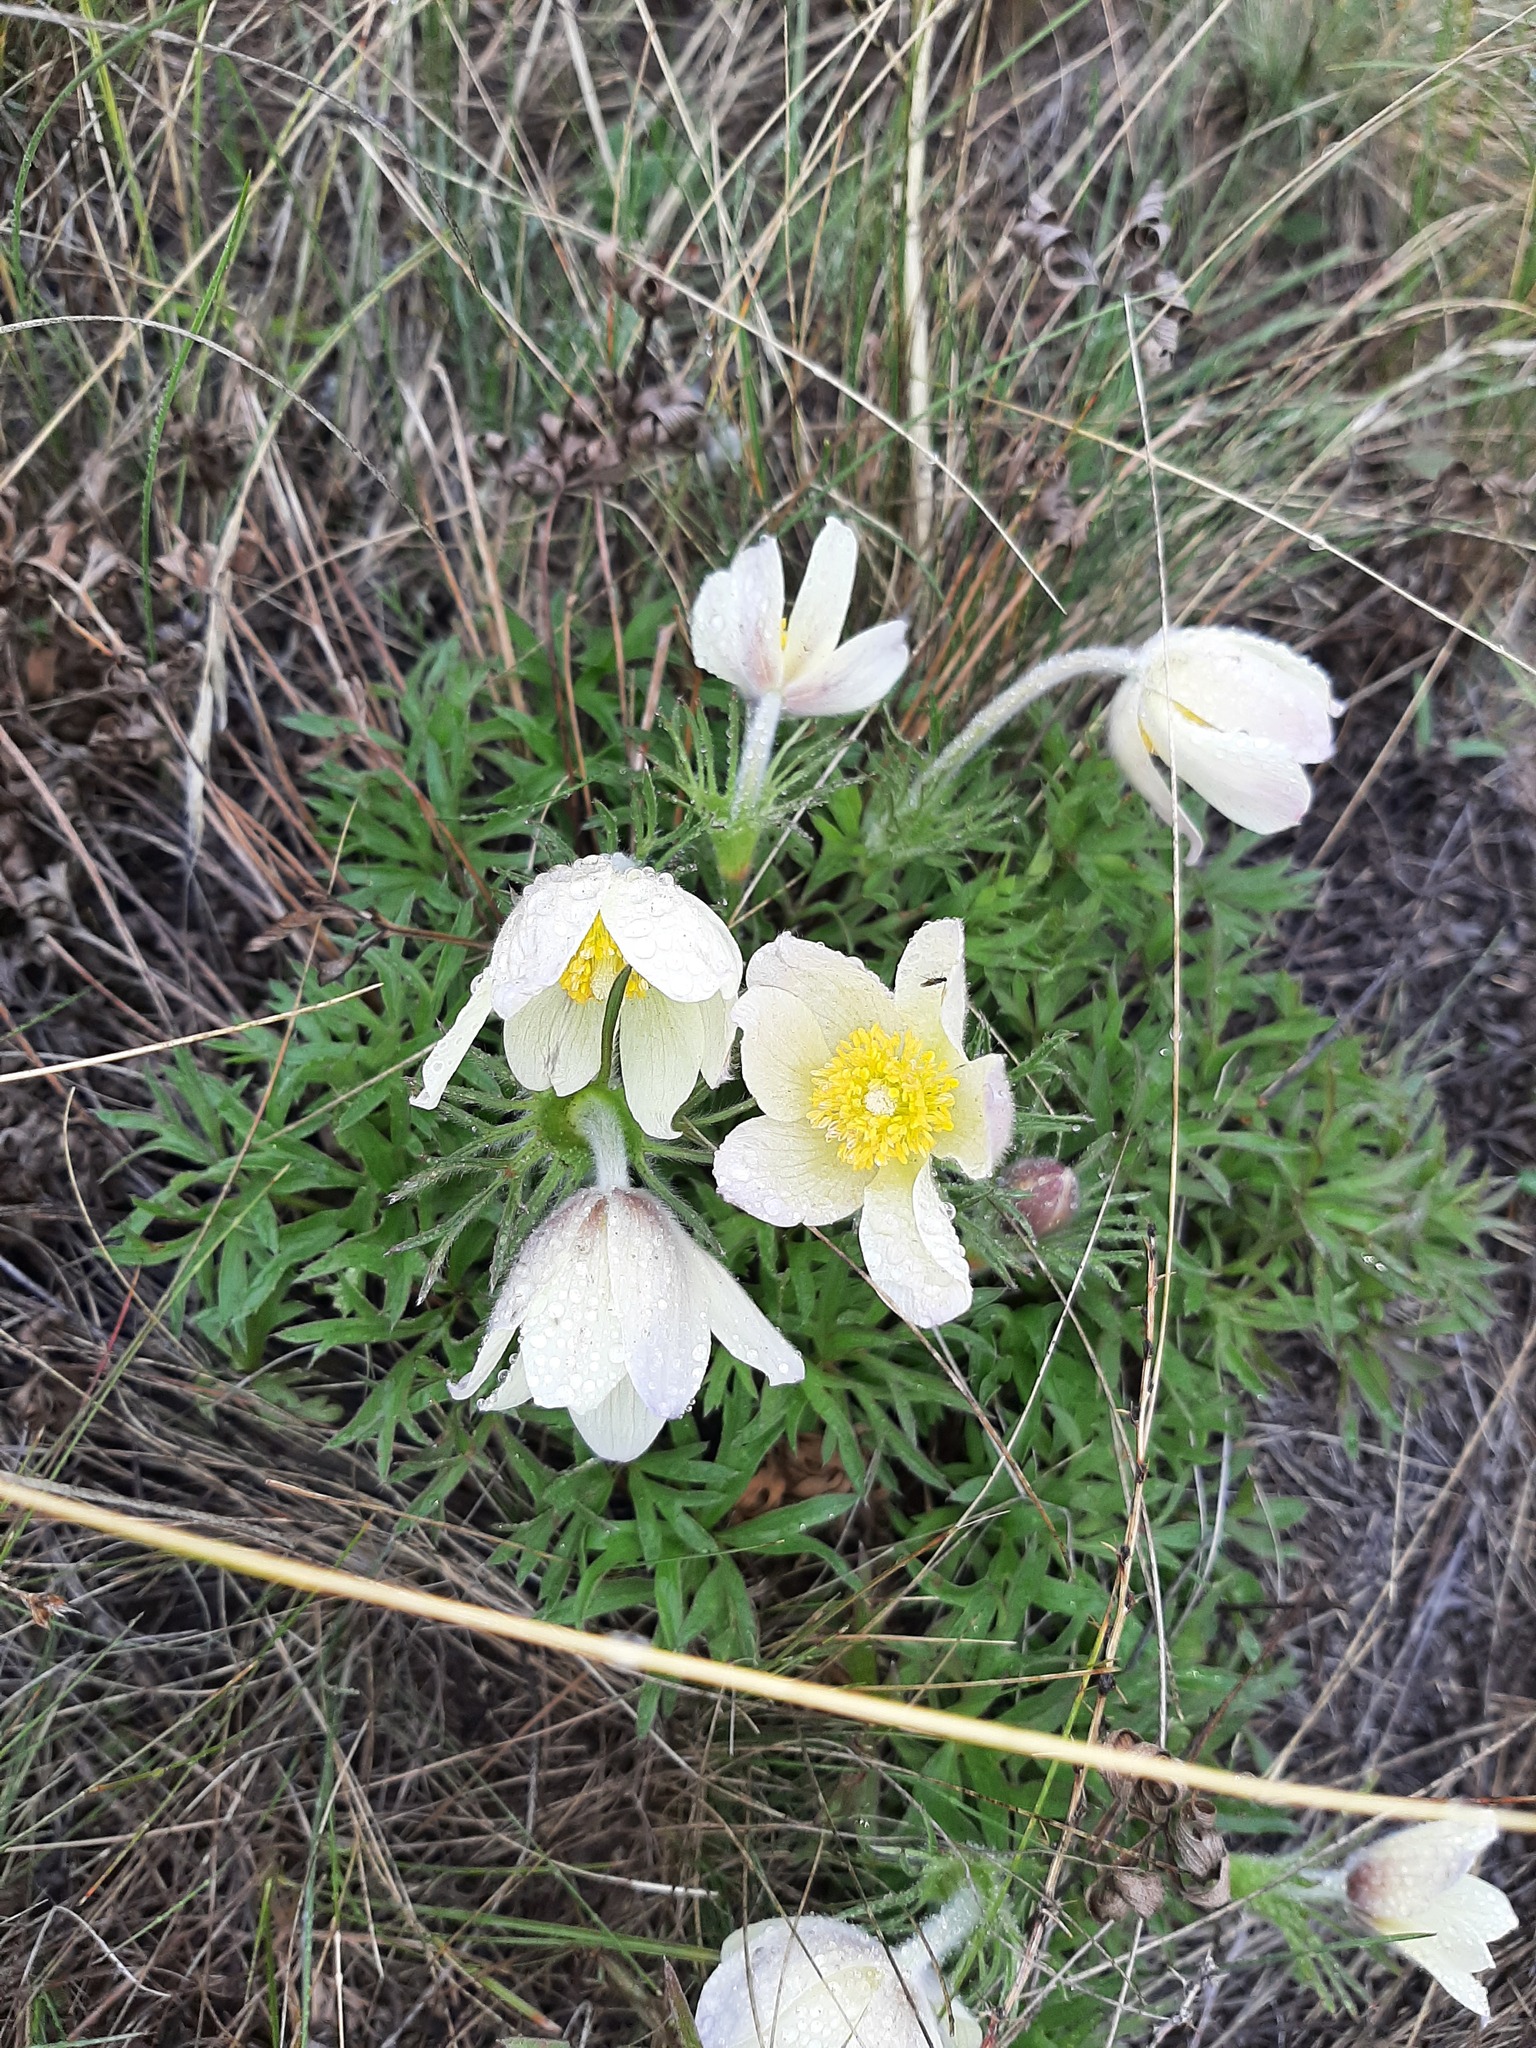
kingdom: Plantae
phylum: Tracheophyta
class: Magnoliopsida
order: Ranunculales
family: Ranunculaceae
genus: Pulsatilla
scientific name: Pulsatilla patens
